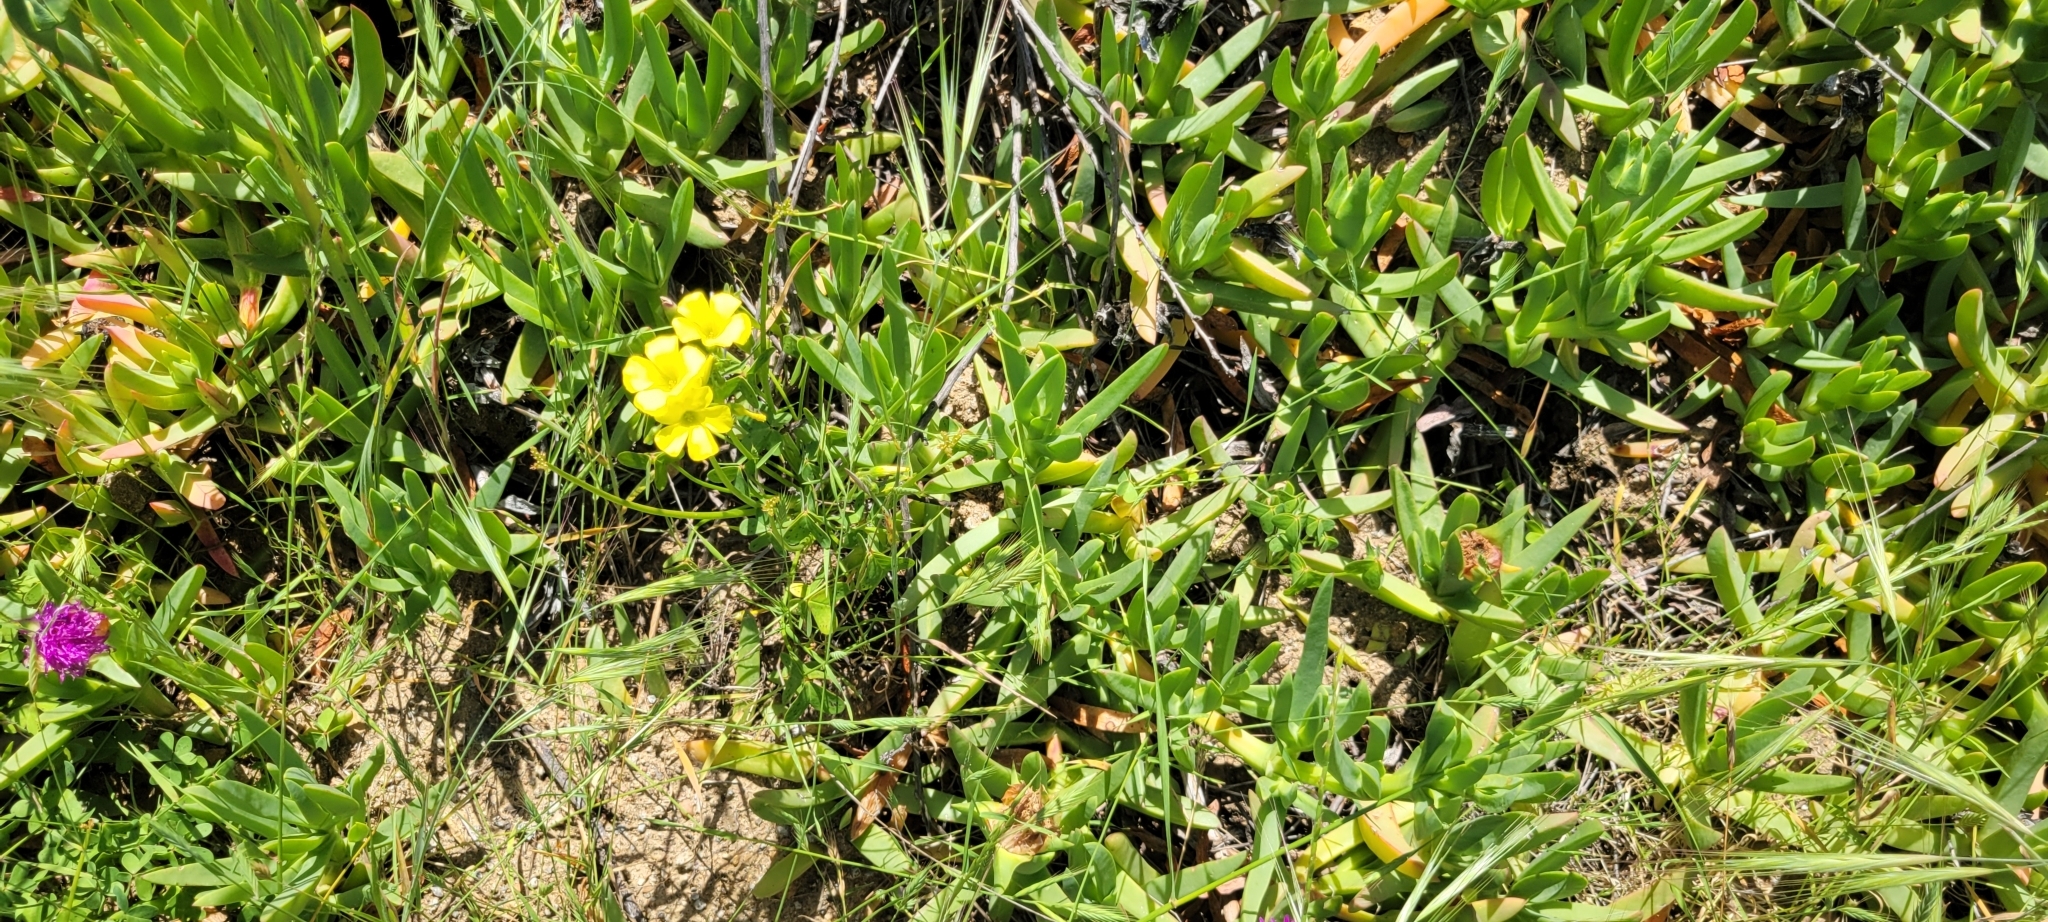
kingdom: Plantae
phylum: Tracheophyta
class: Magnoliopsida
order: Oxalidales
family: Oxalidaceae
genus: Oxalis
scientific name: Oxalis pes-caprae
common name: Bermuda-buttercup
